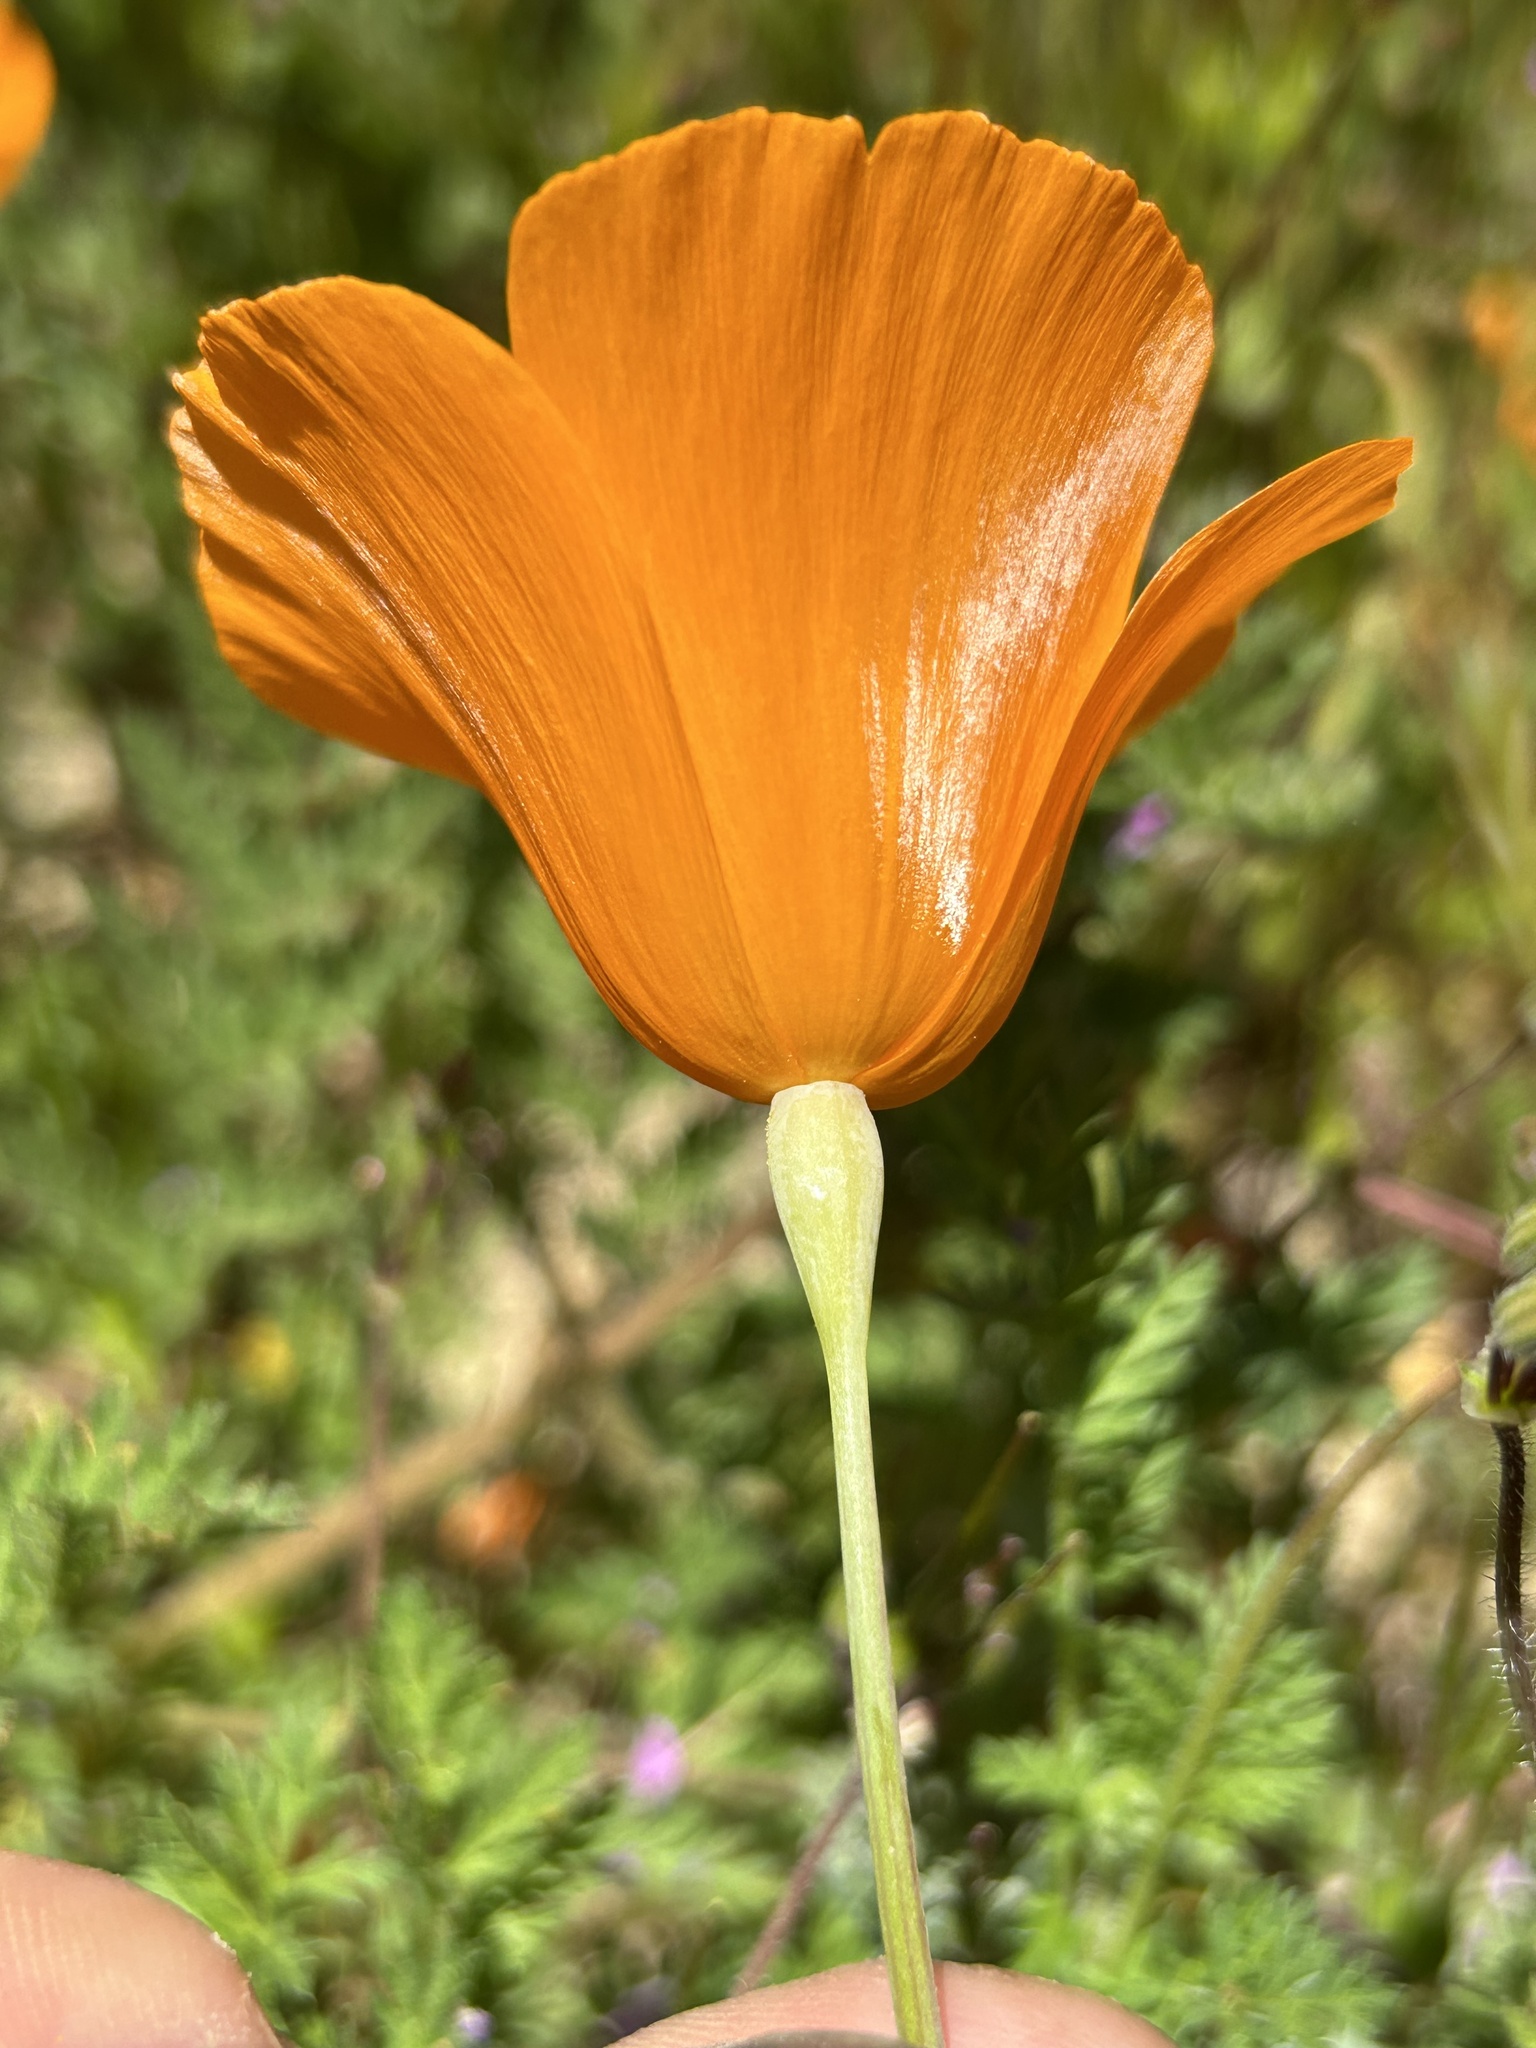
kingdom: Plantae
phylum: Tracheophyta
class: Magnoliopsida
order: Ranunculales
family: Papaveraceae
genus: Eschscholzia
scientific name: Eschscholzia lemmonii
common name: Lemmon's poppy
